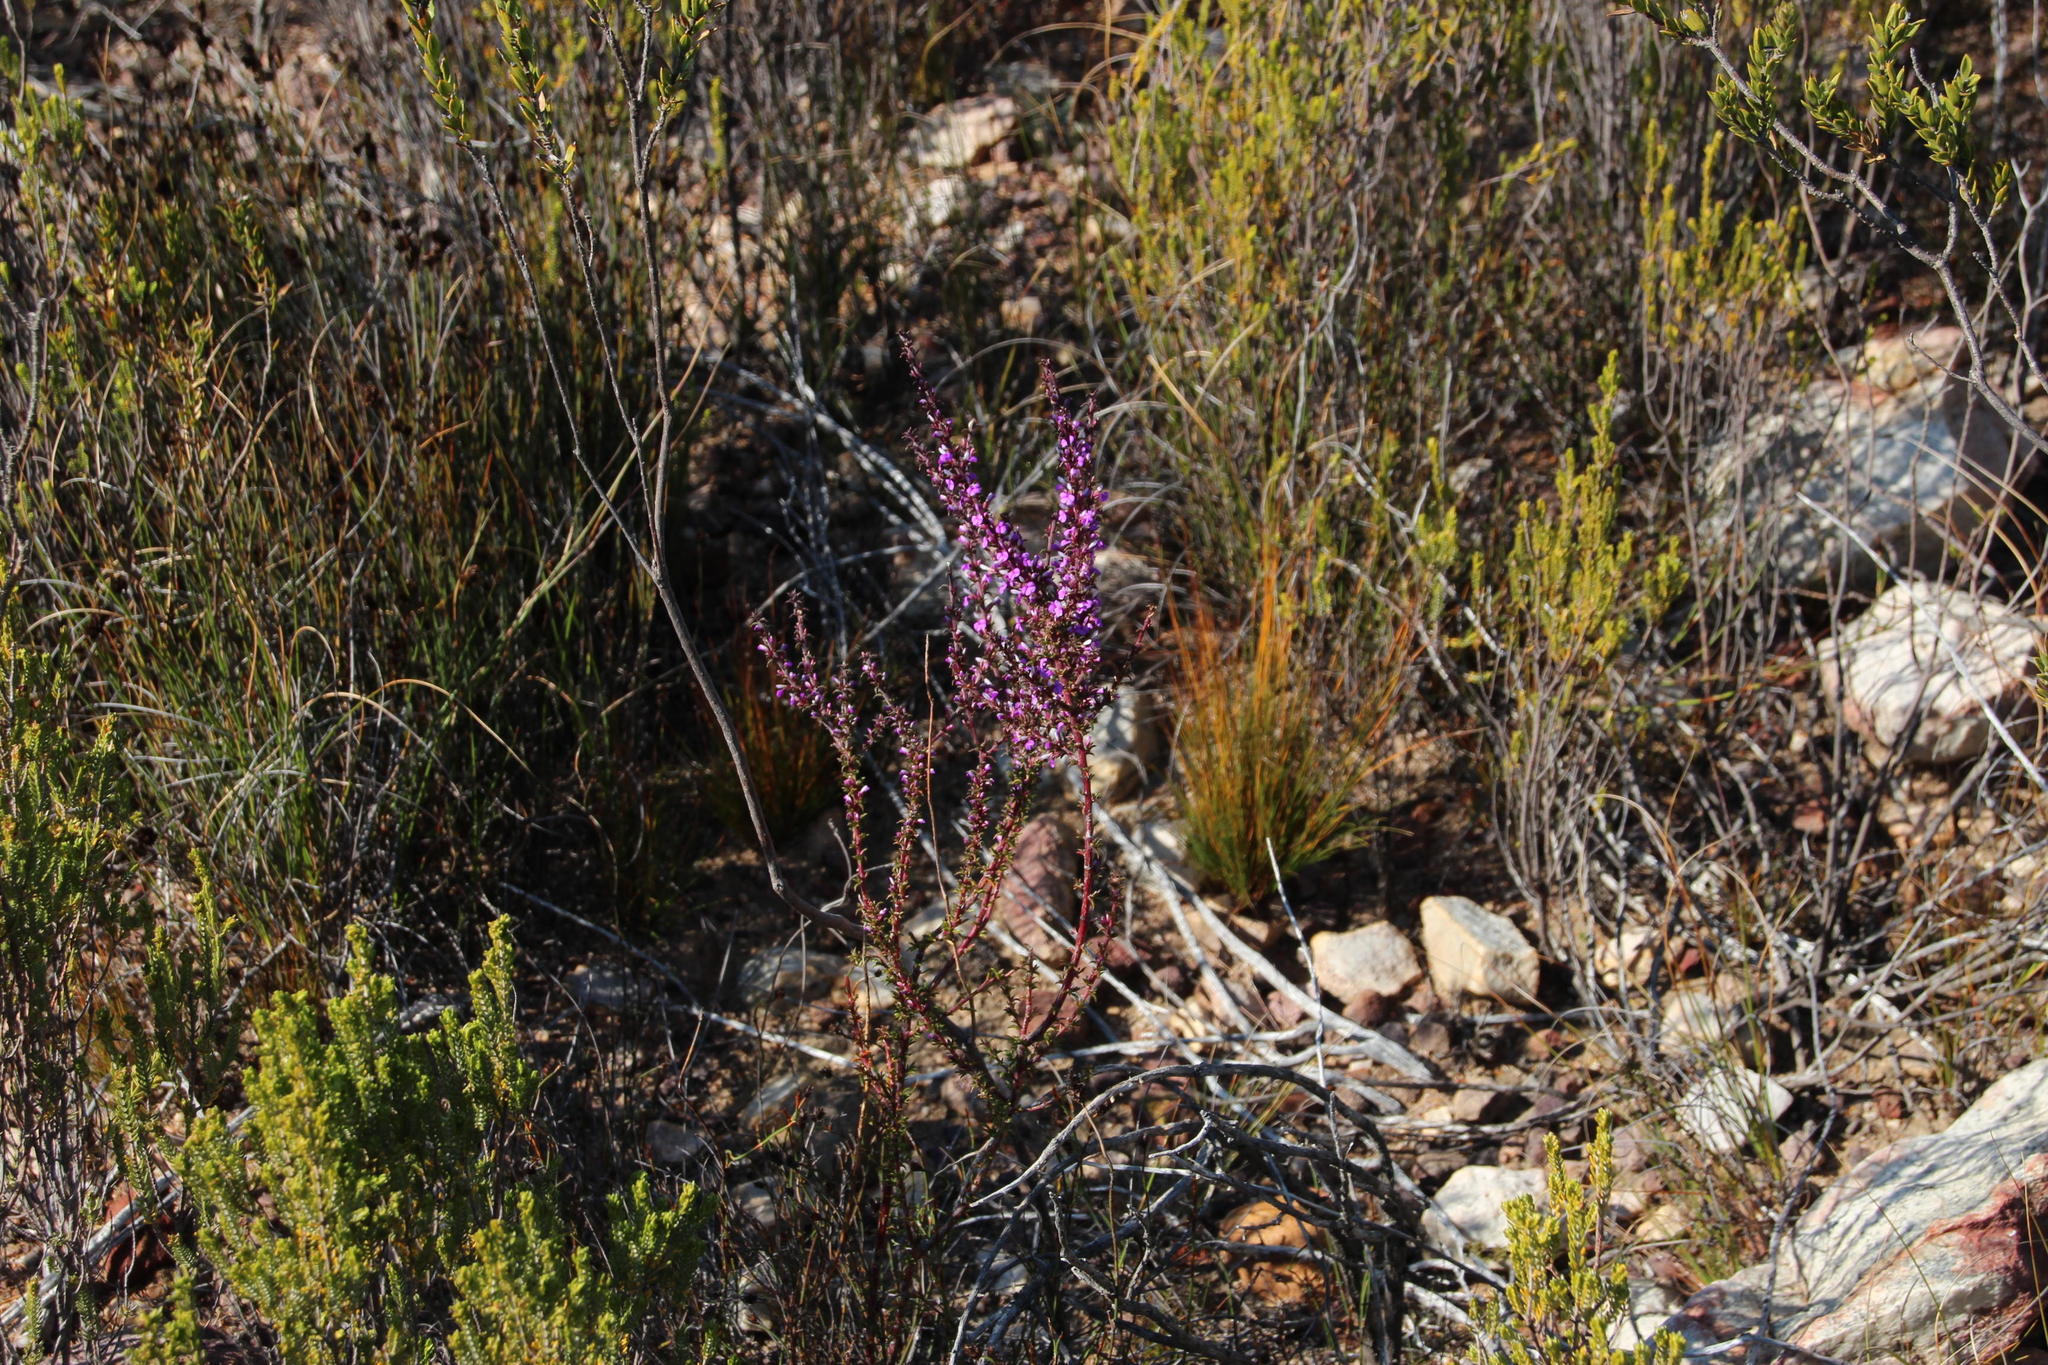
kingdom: Plantae
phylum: Tracheophyta
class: Magnoliopsida
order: Fabales
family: Polygalaceae
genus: Muraltia
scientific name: Muraltia heisteria
